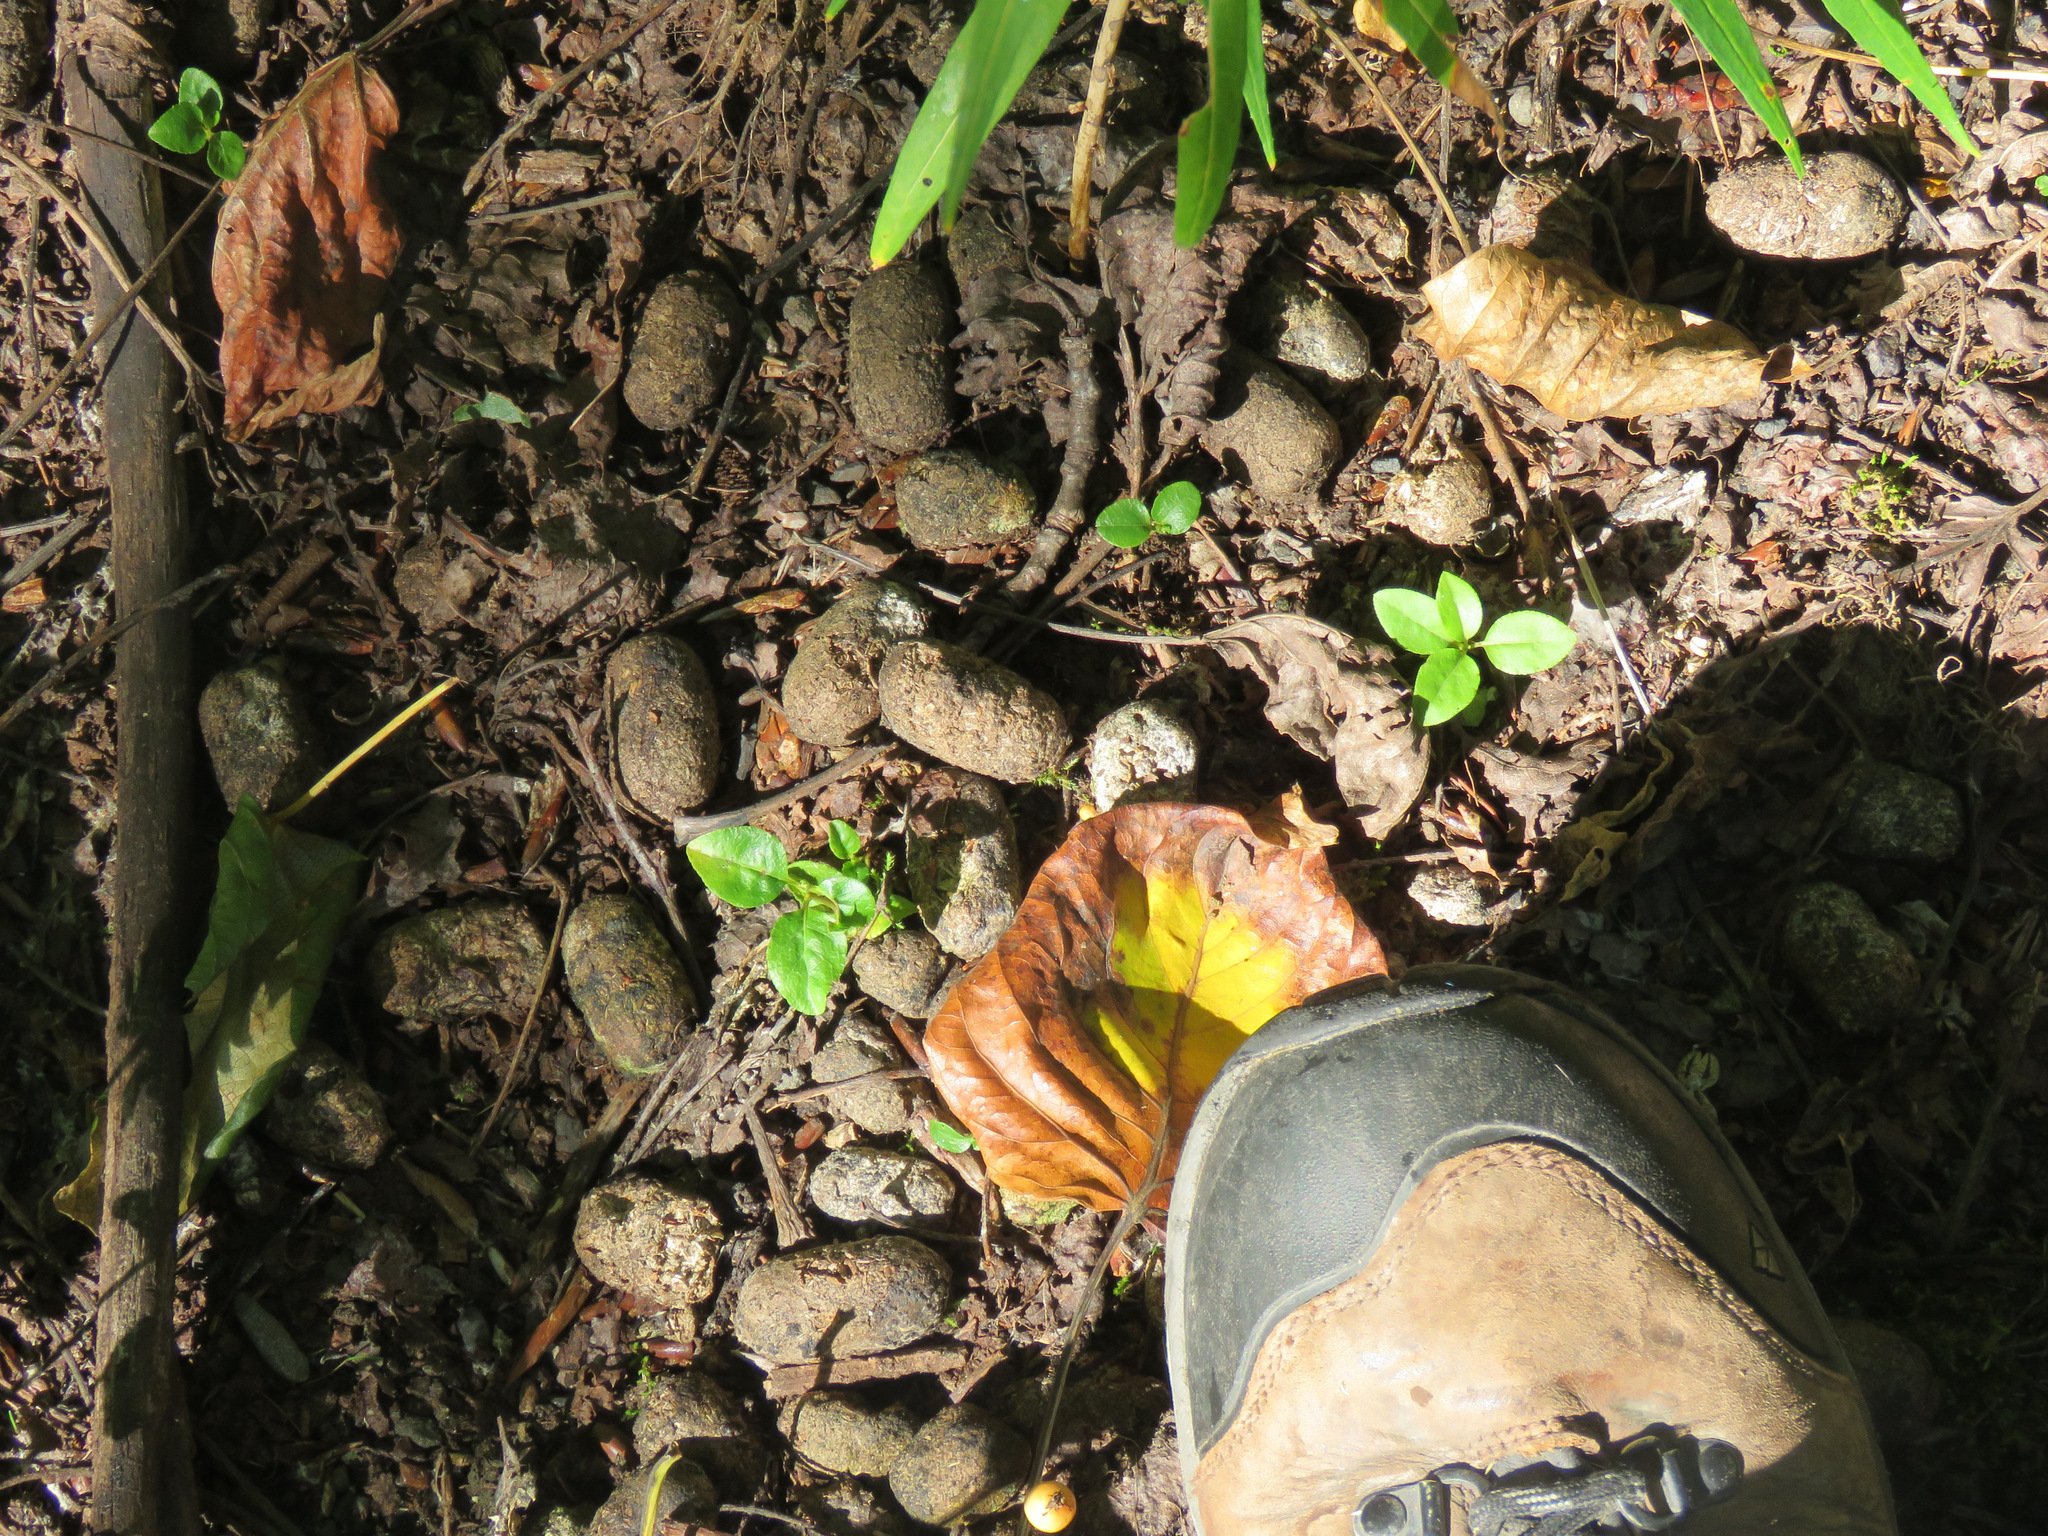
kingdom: Animalia
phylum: Chordata
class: Mammalia
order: Artiodactyla
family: Cervidae
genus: Alces
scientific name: Alces alces
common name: Moose
